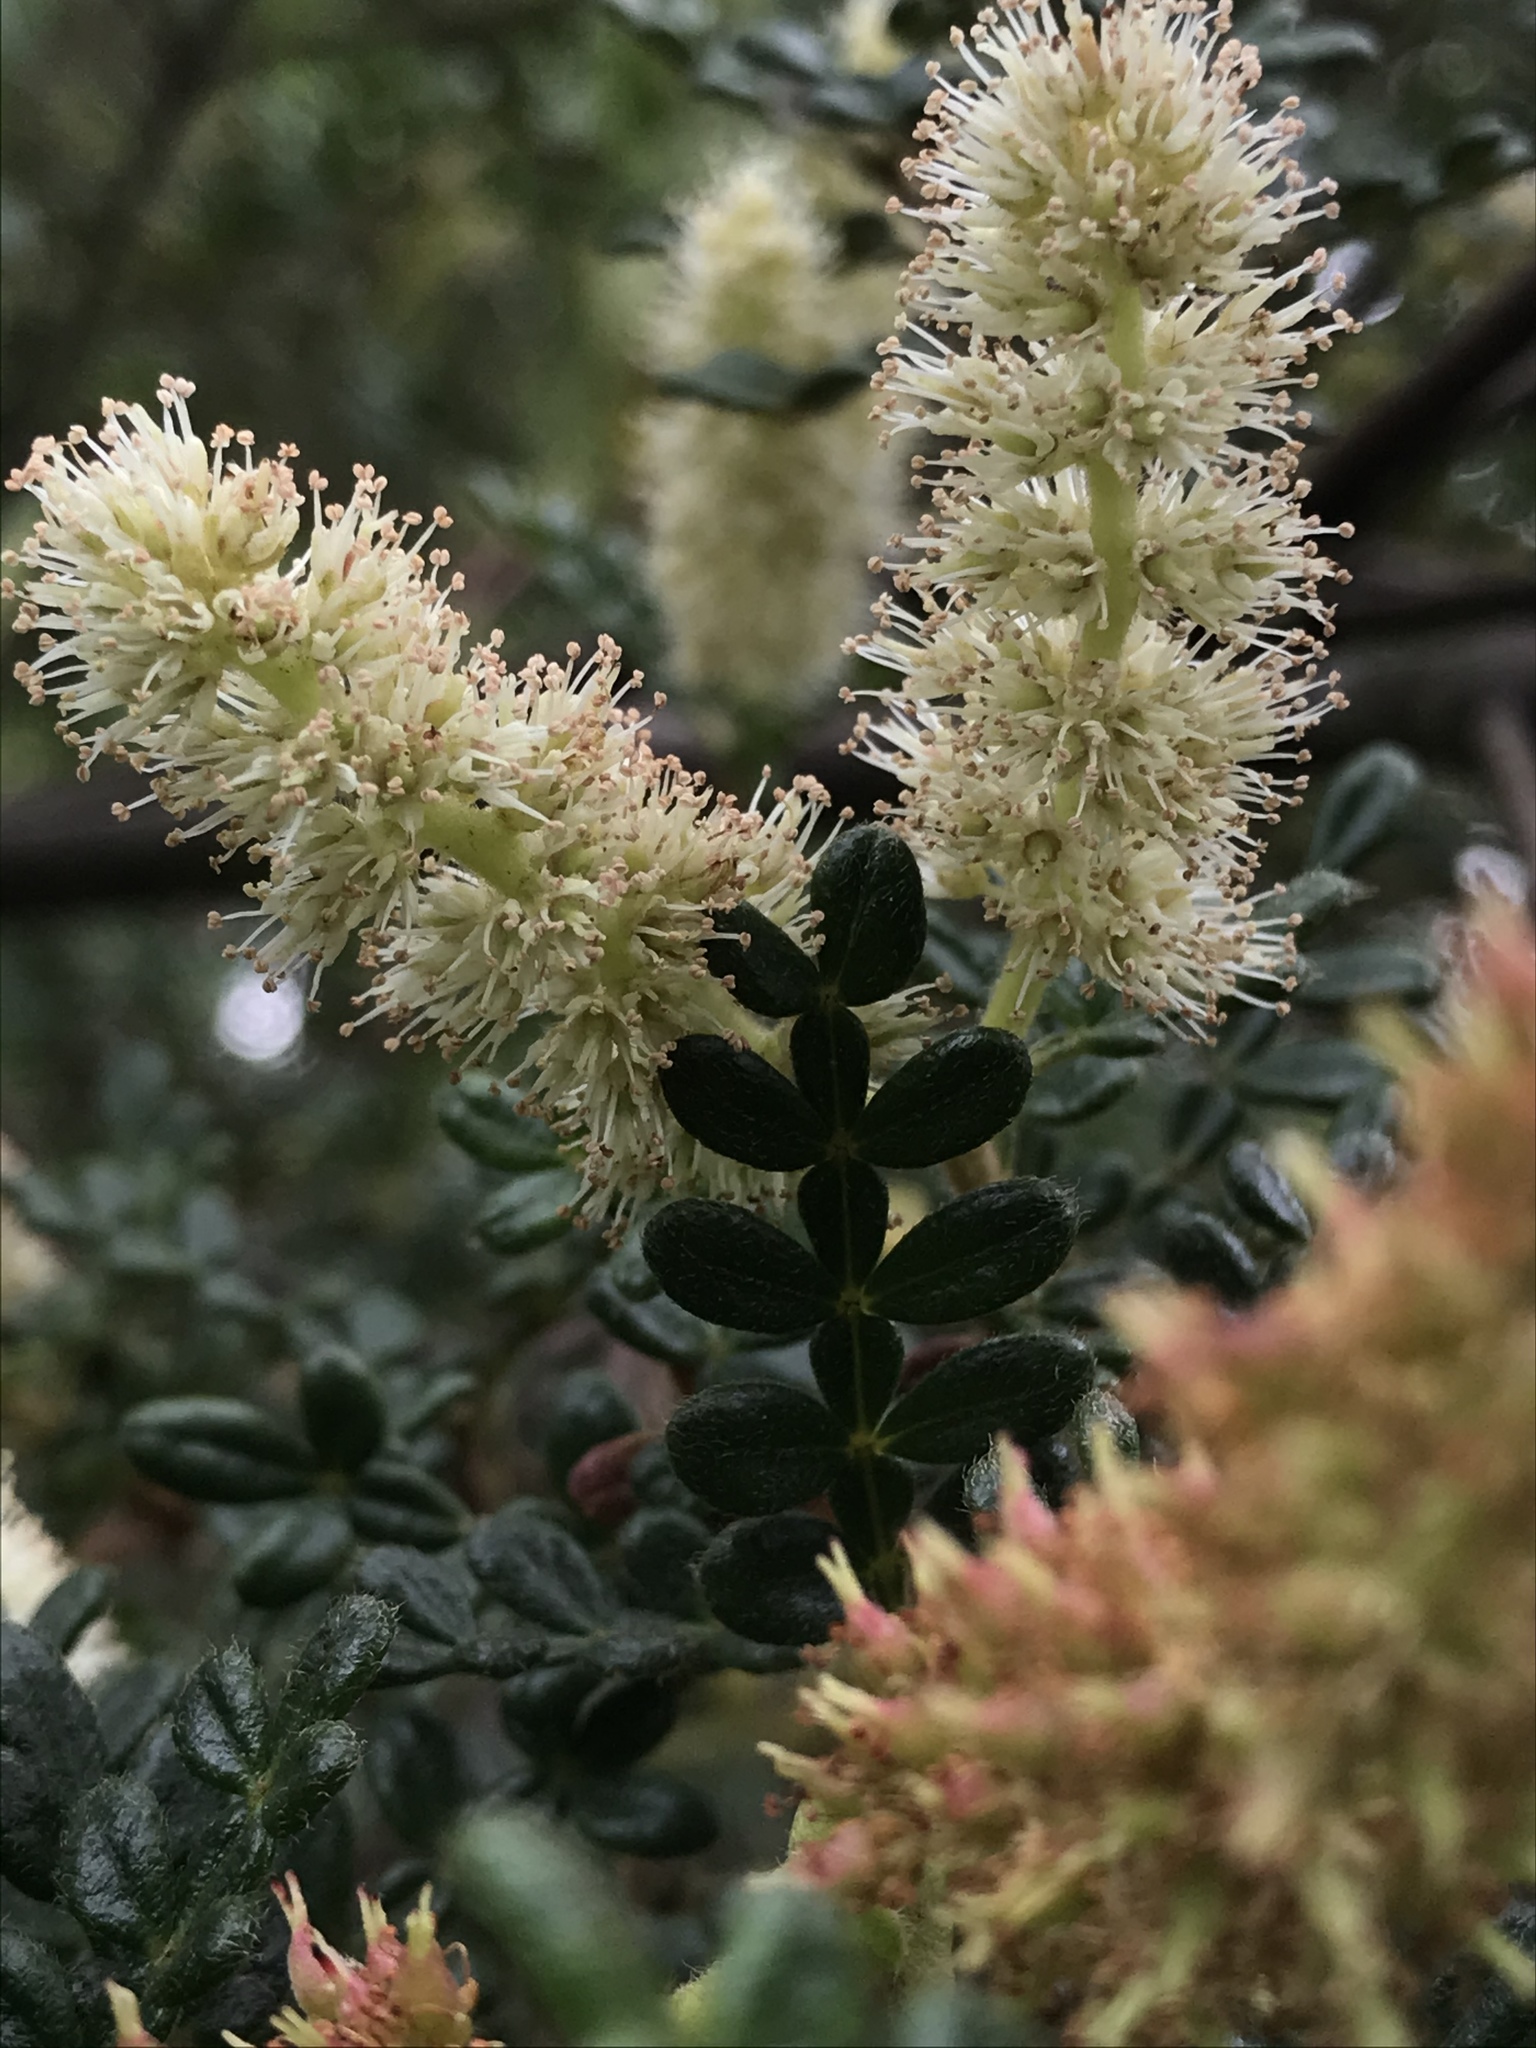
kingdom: Plantae
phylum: Tracheophyta
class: Magnoliopsida
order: Oxalidales
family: Cunoniaceae
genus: Weinmannia
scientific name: Weinmannia tomentosa
